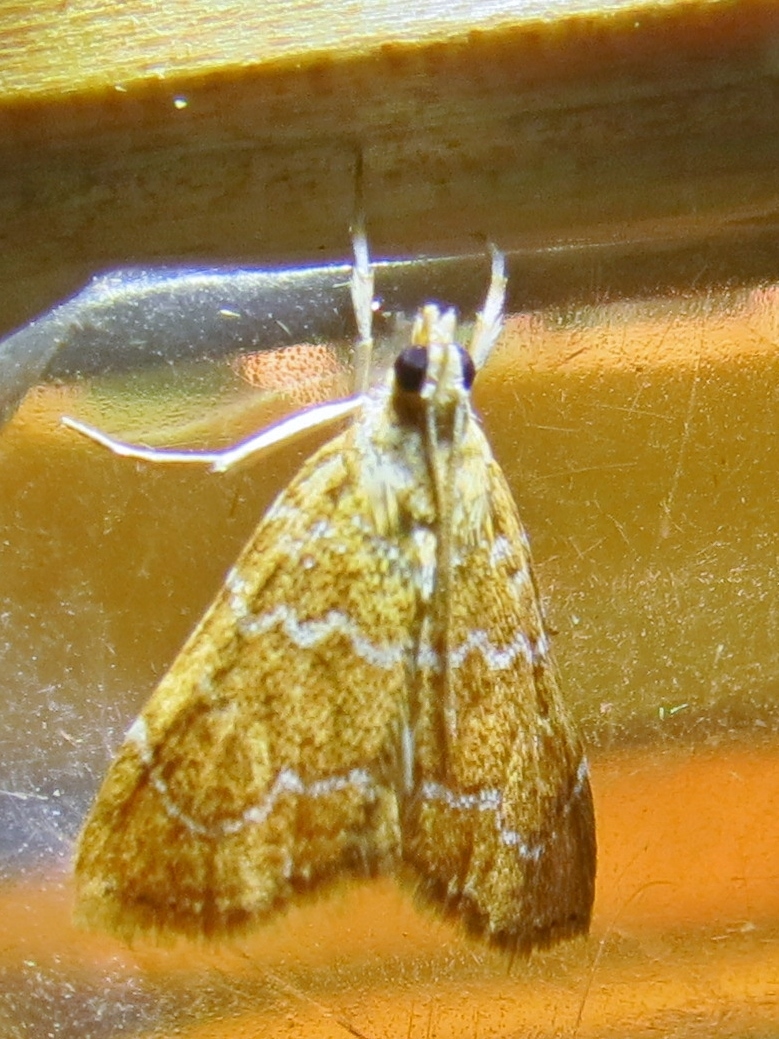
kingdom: Animalia
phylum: Arthropoda
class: Insecta
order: Lepidoptera
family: Crambidae
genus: Glaphyria
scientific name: Glaphyria sesquistrialis
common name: White-roped glaphyria
